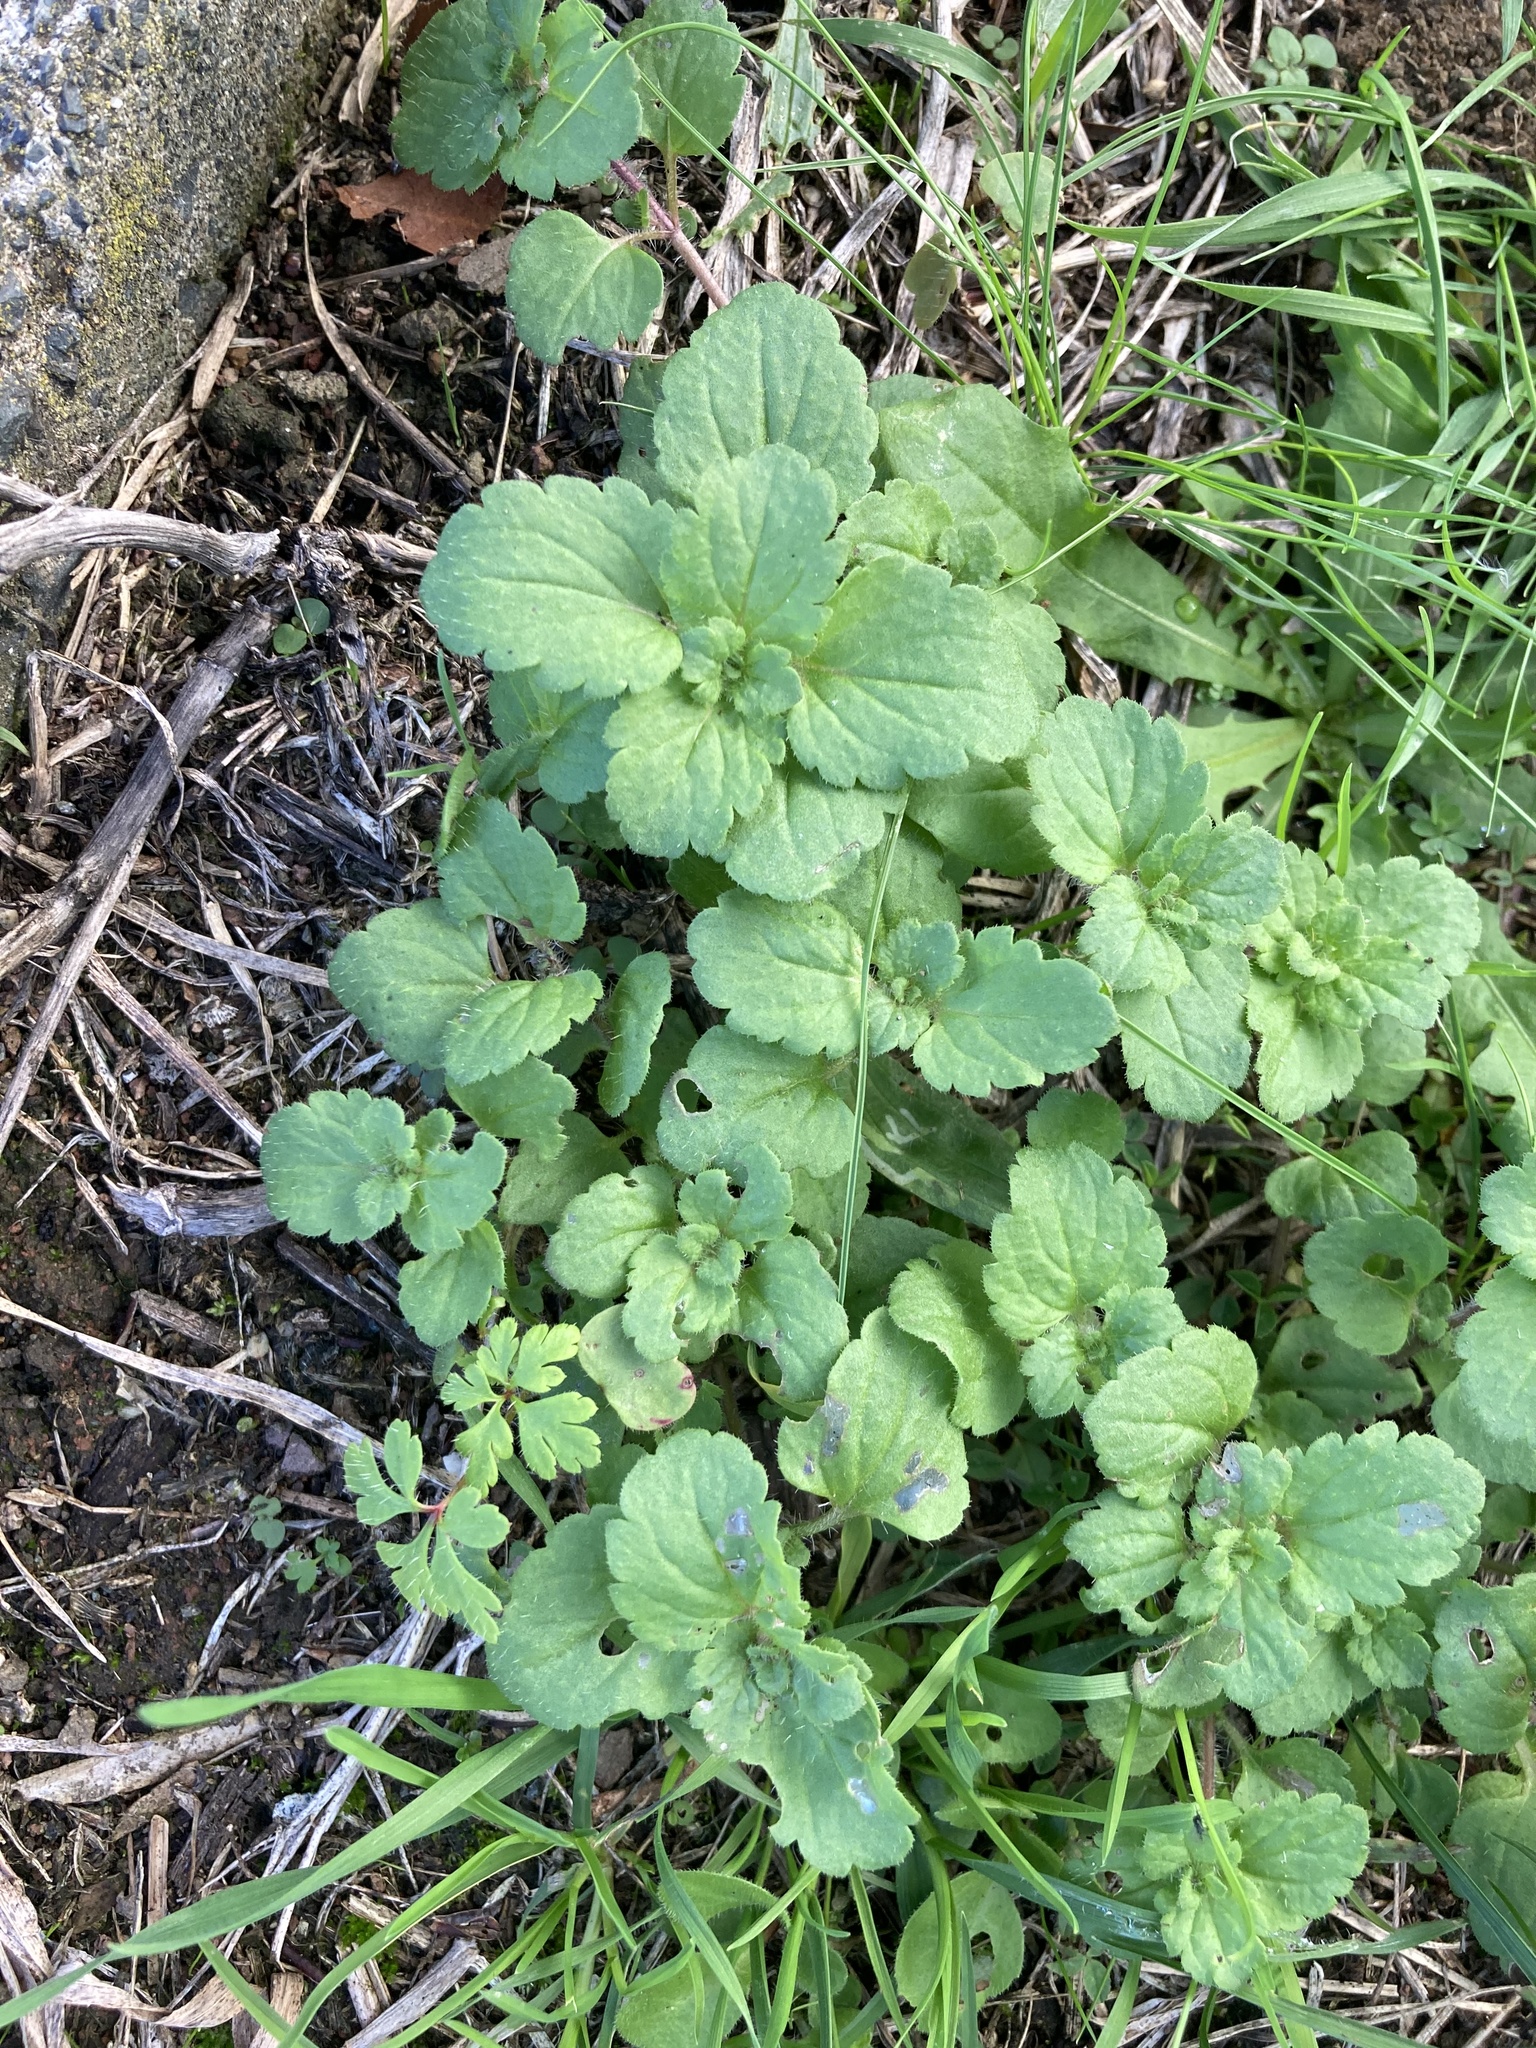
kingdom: Plantae
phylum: Tracheophyta
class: Magnoliopsida
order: Lamiales
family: Plantaginaceae
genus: Veronica
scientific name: Veronica persica
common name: Common field-speedwell
